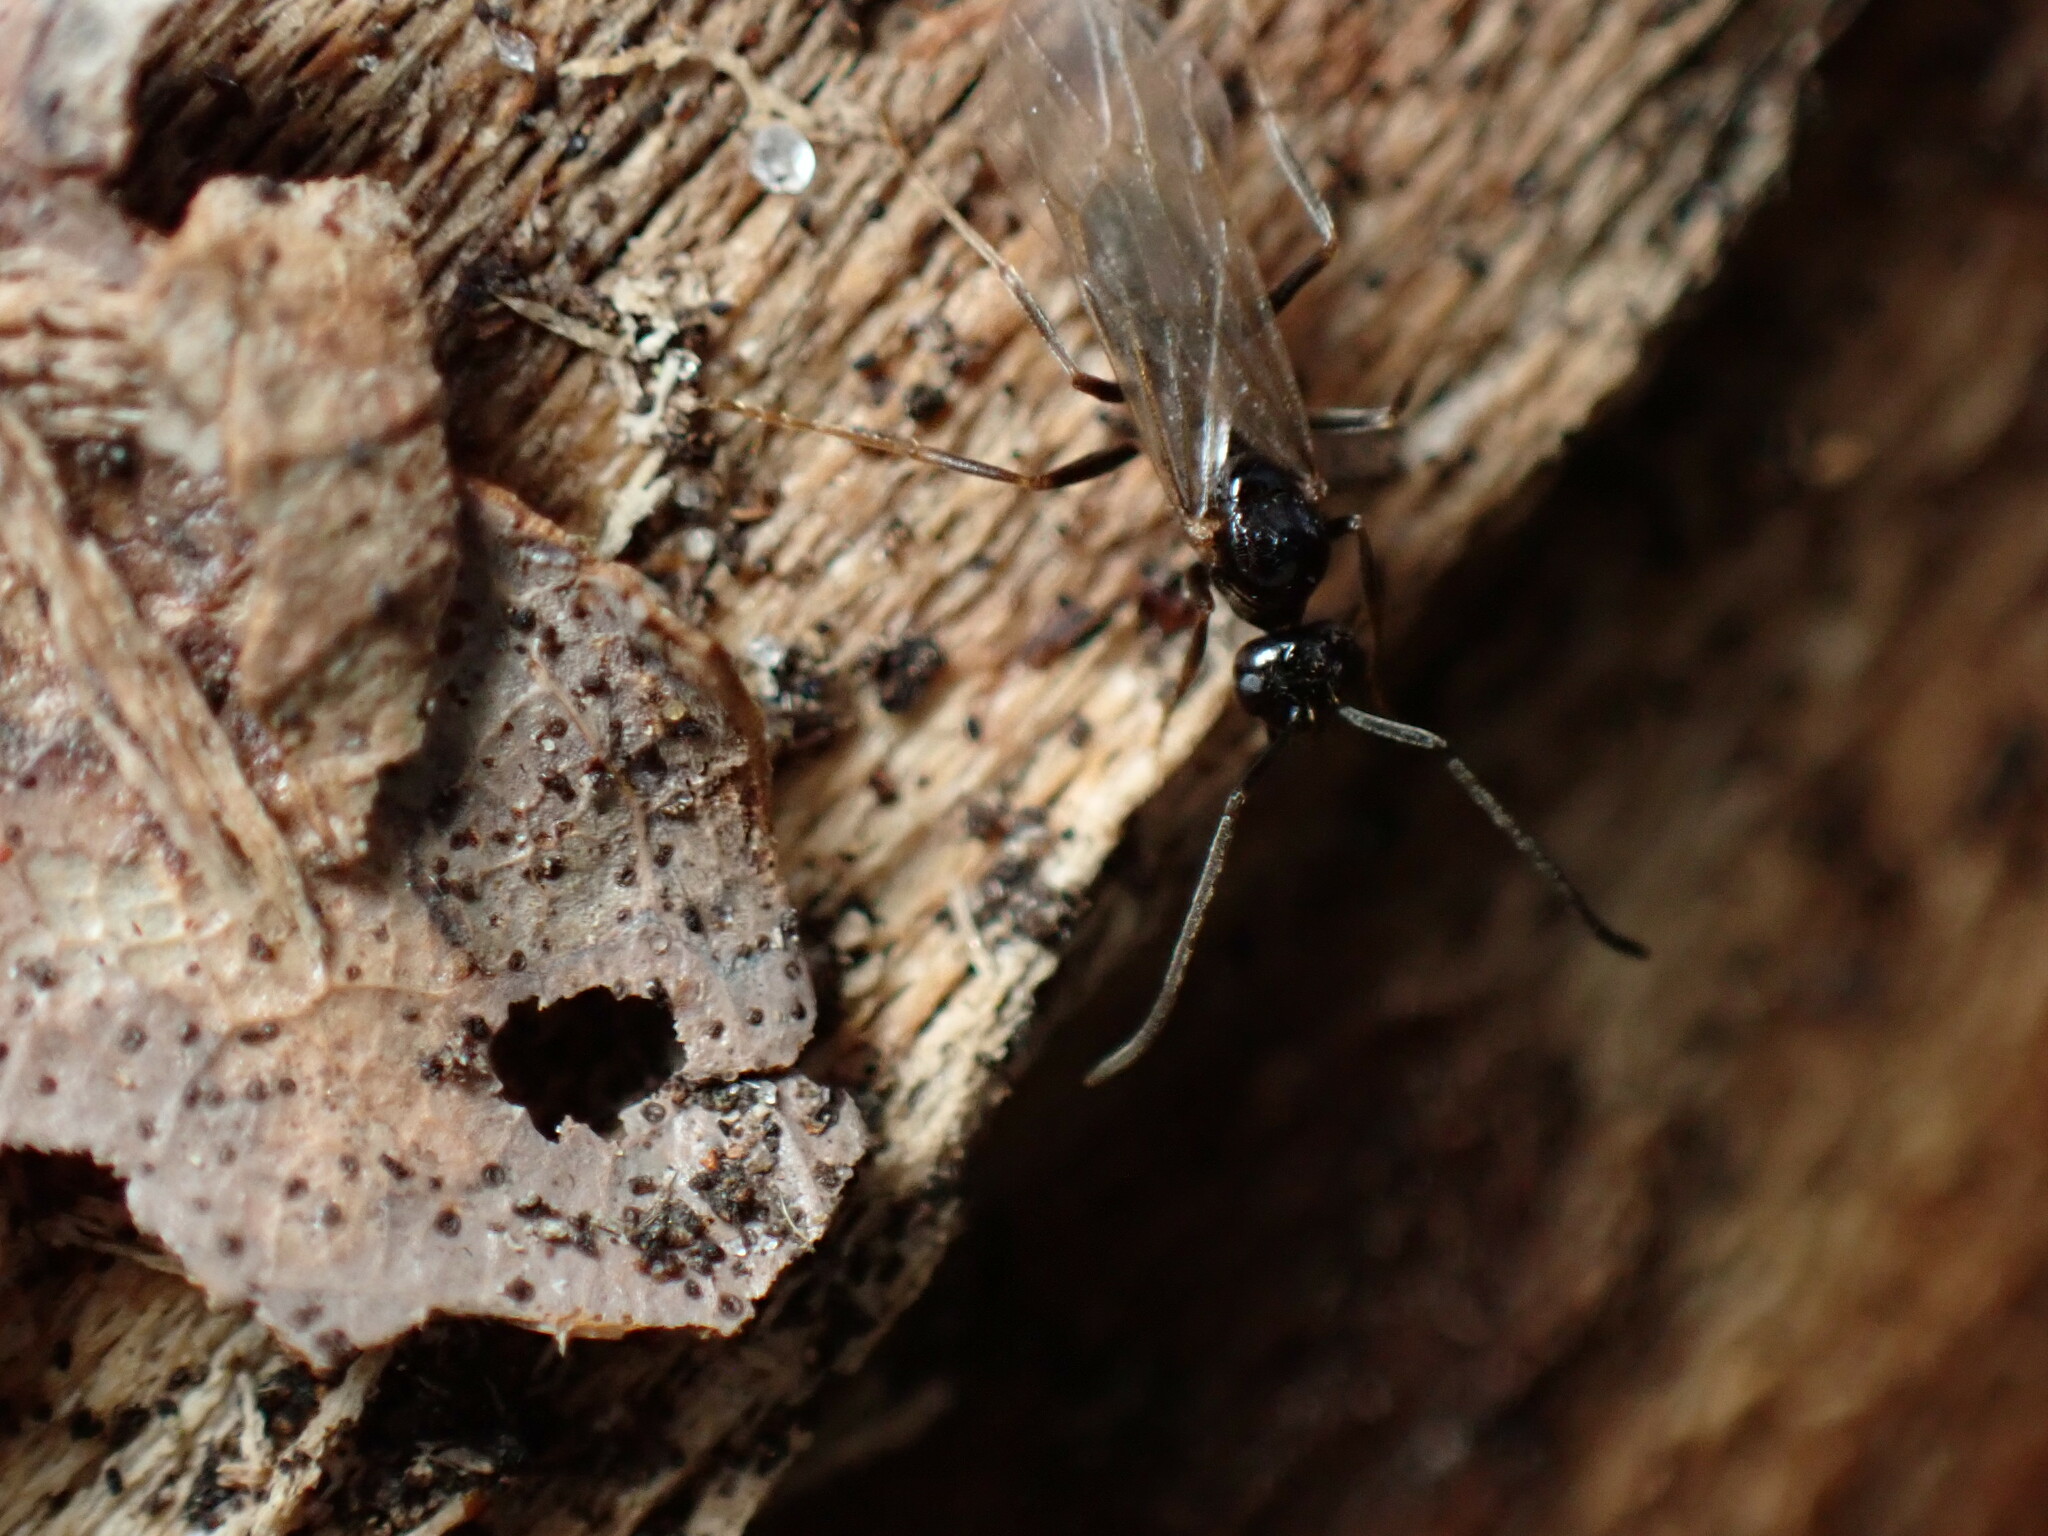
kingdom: Animalia
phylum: Arthropoda
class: Insecta
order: Hymenoptera
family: Formicidae
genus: Prenolepis
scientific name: Prenolepis imparis
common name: Small honey ant
